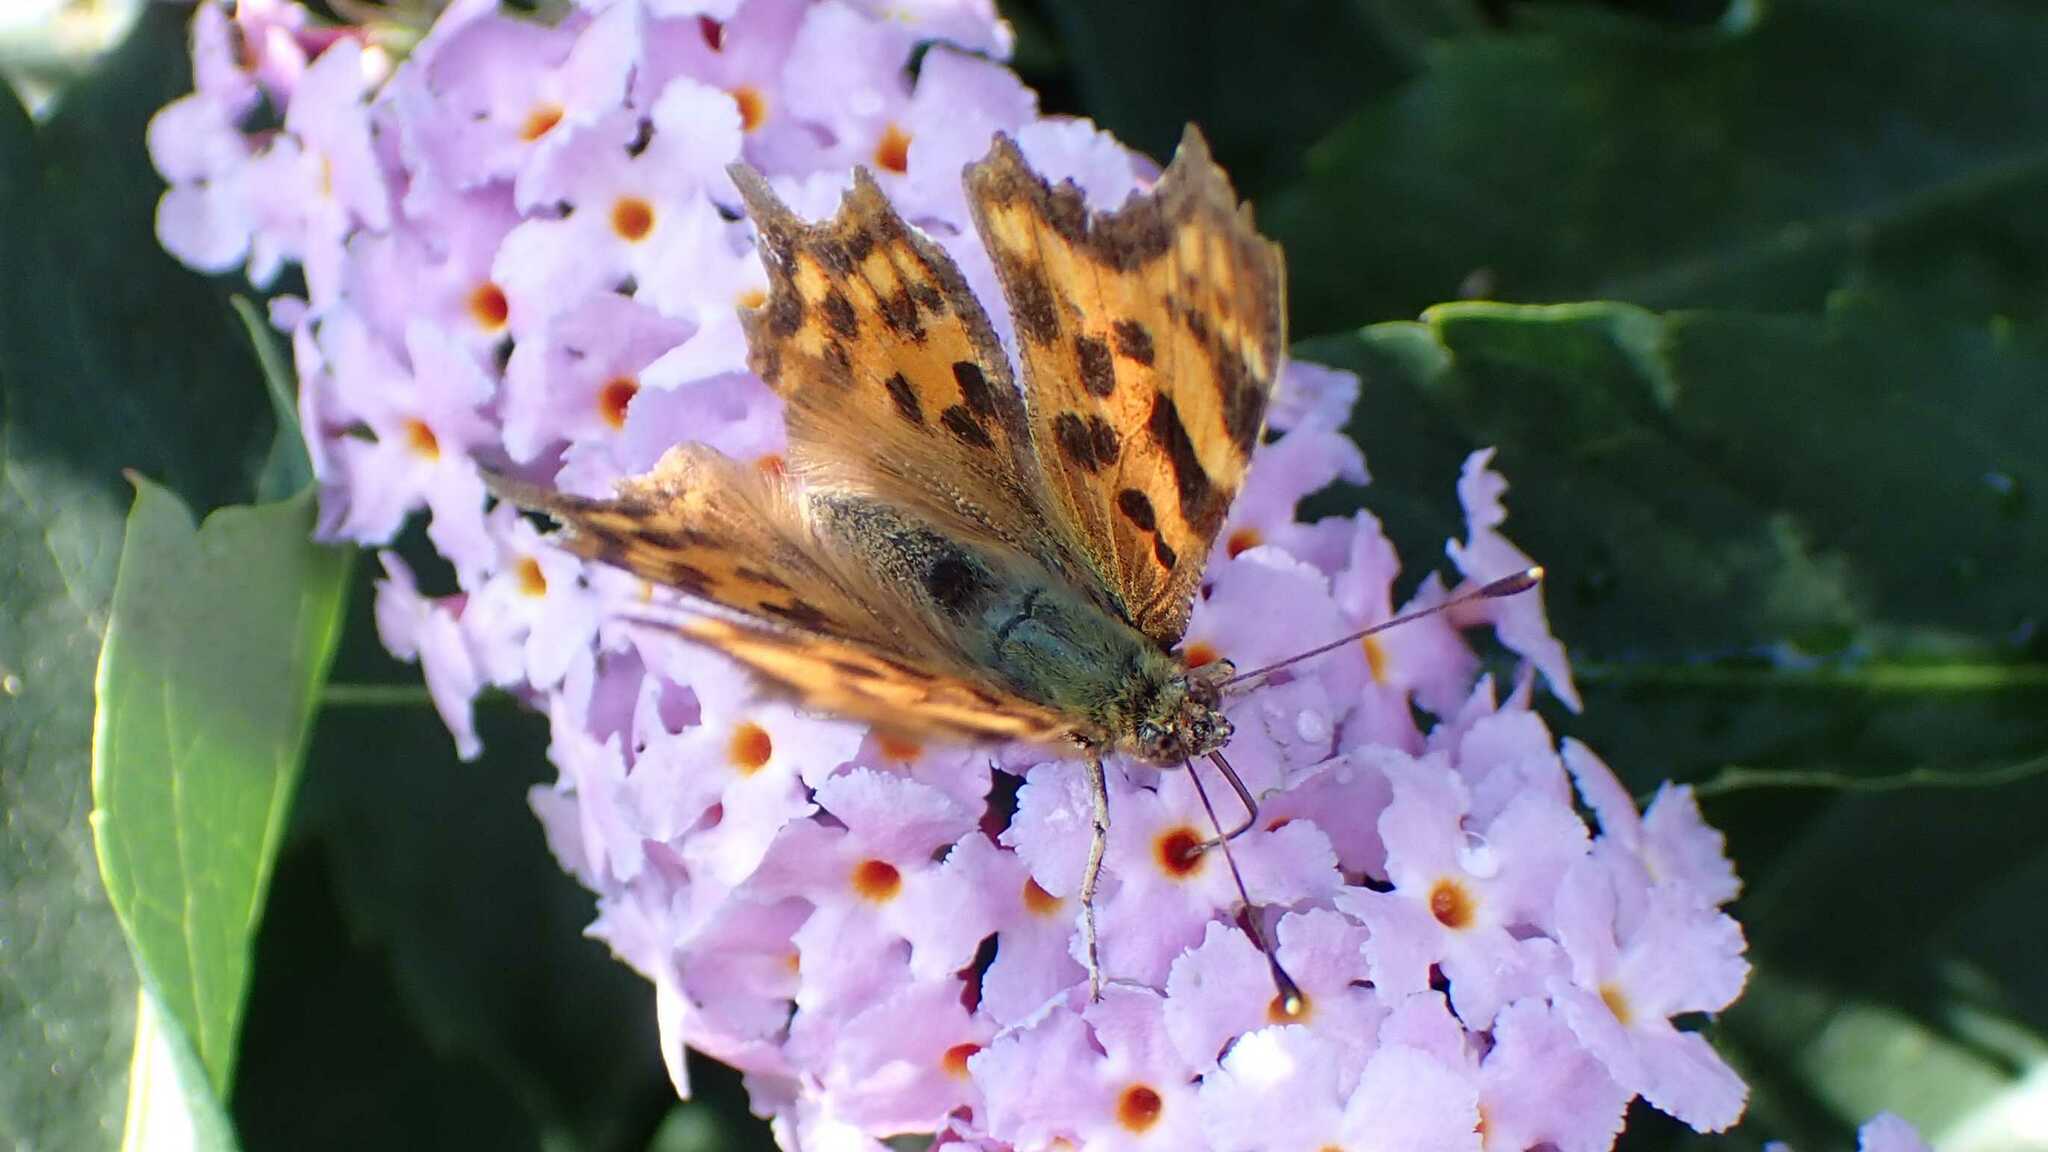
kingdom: Animalia
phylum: Arthropoda
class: Insecta
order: Lepidoptera
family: Nymphalidae
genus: Polygonia
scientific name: Polygonia c-album
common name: Comma
